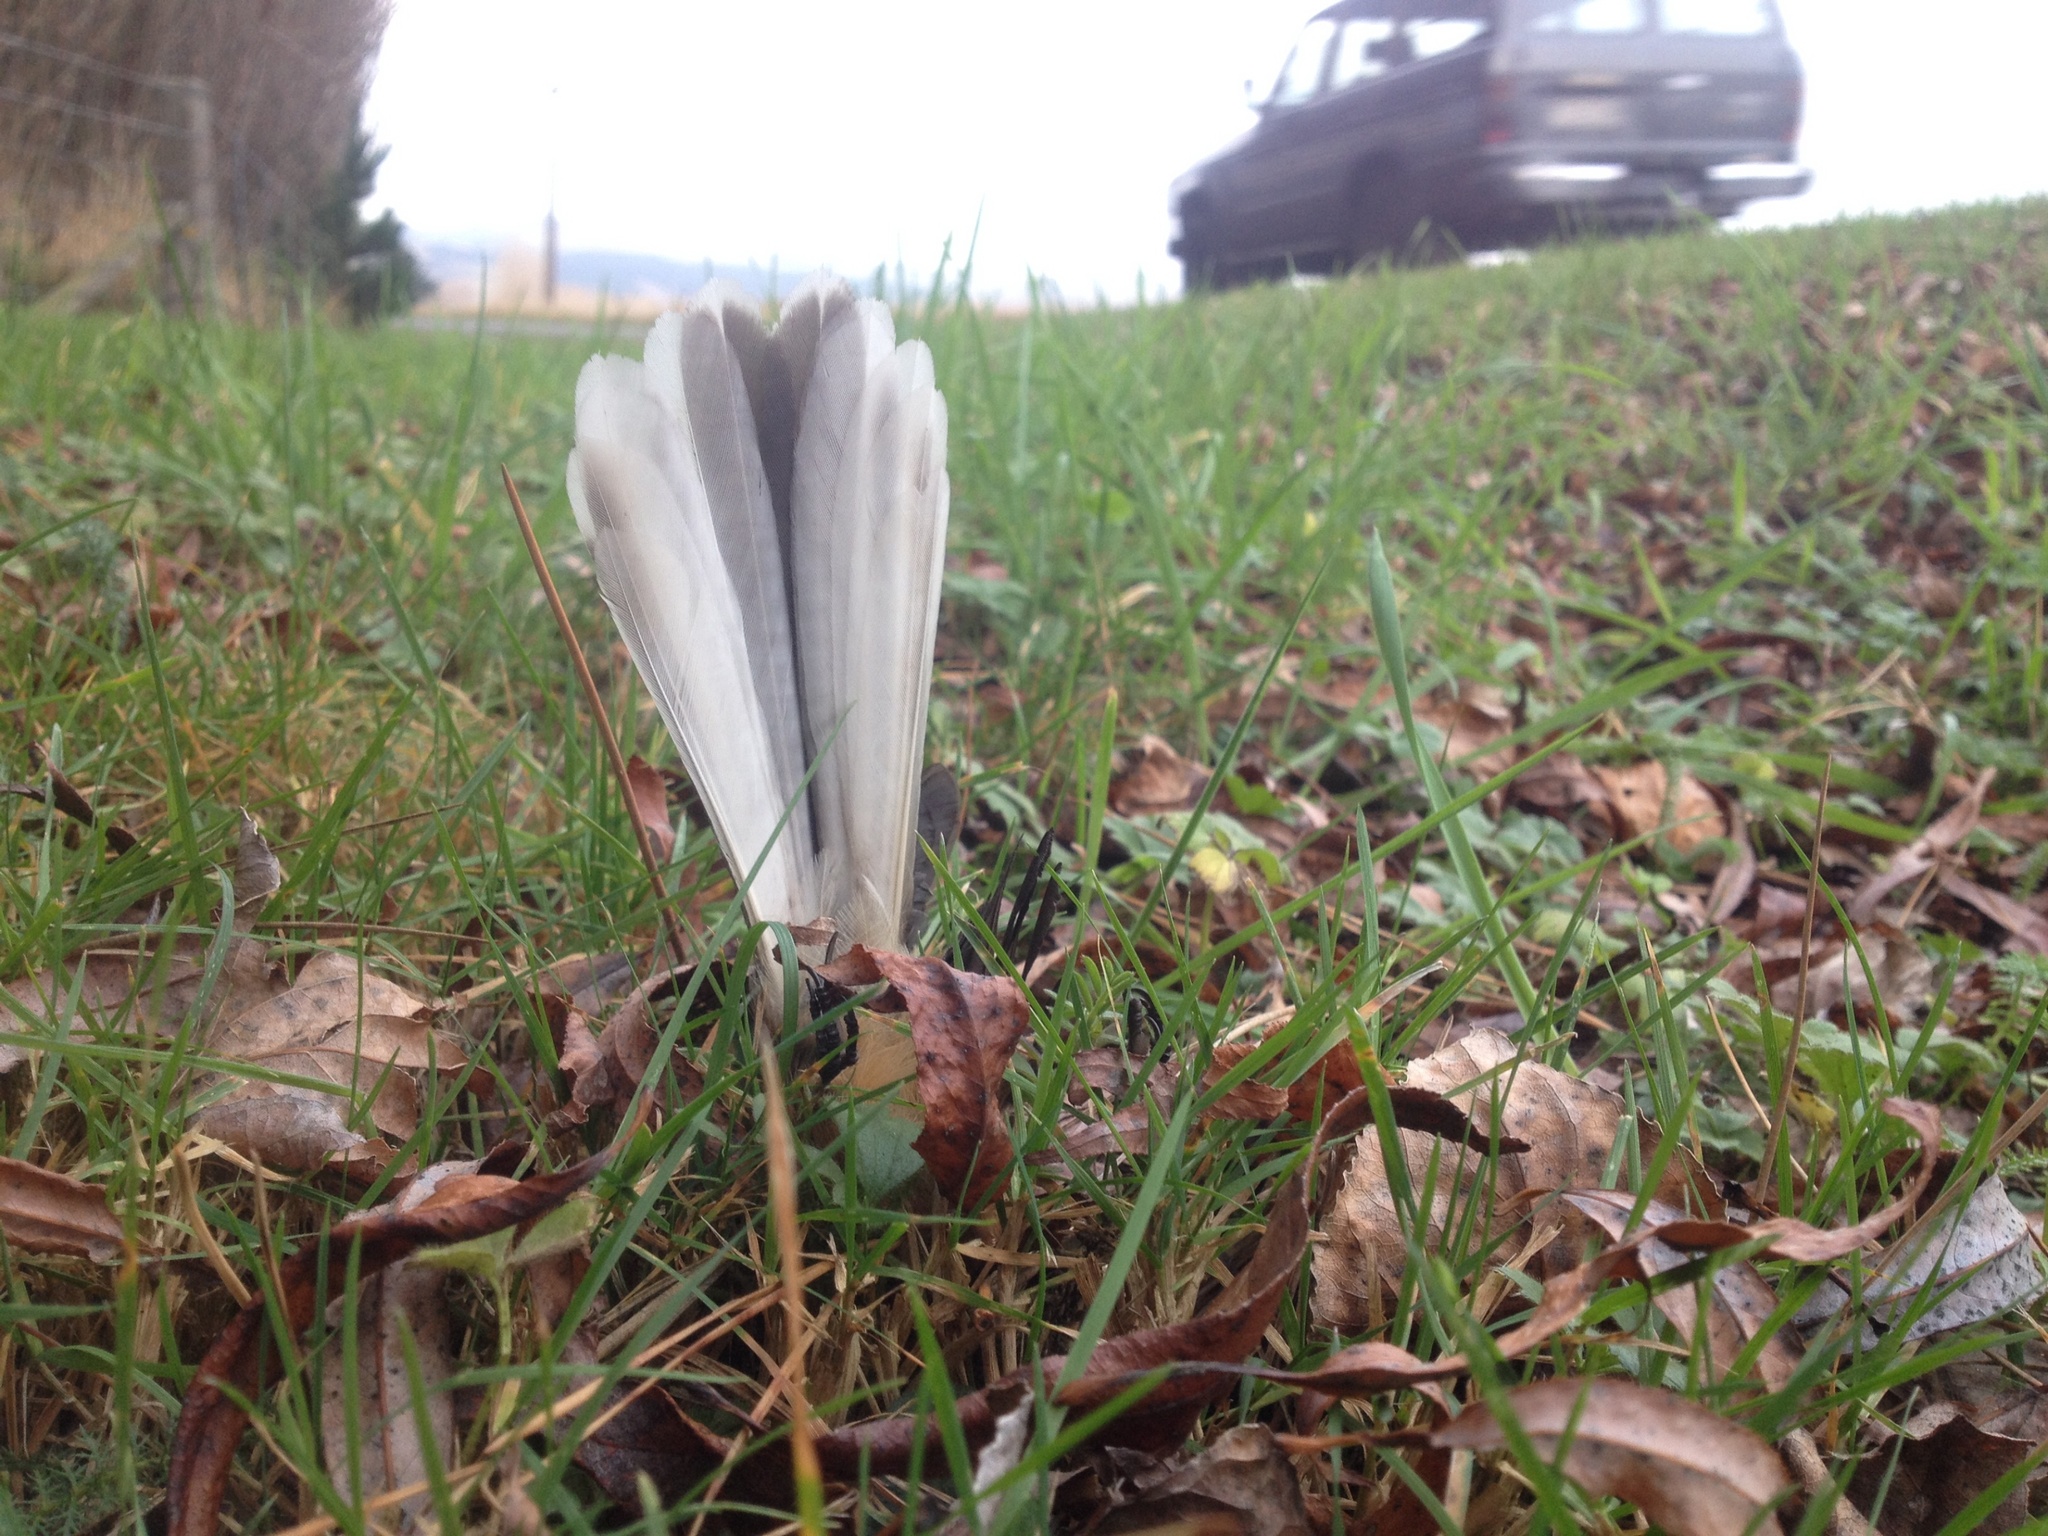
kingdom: Animalia
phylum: Chordata
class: Aves
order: Passeriformes
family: Rhipiduridae
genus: Rhipidura
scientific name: Rhipidura fuliginosa
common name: New zealand fantail
